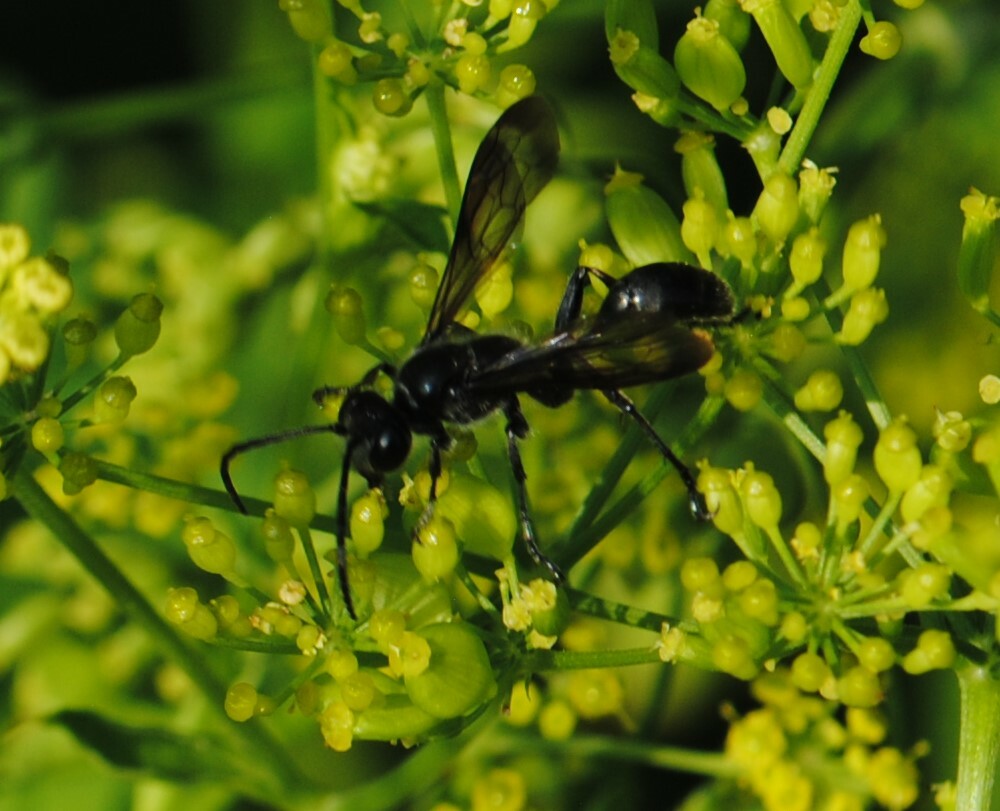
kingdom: Animalia
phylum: Arthropoda
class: Insecta
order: Hymenoptera
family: Sphecidae
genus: Isodontia
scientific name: Isodontia mexicana
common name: Mud dauber
